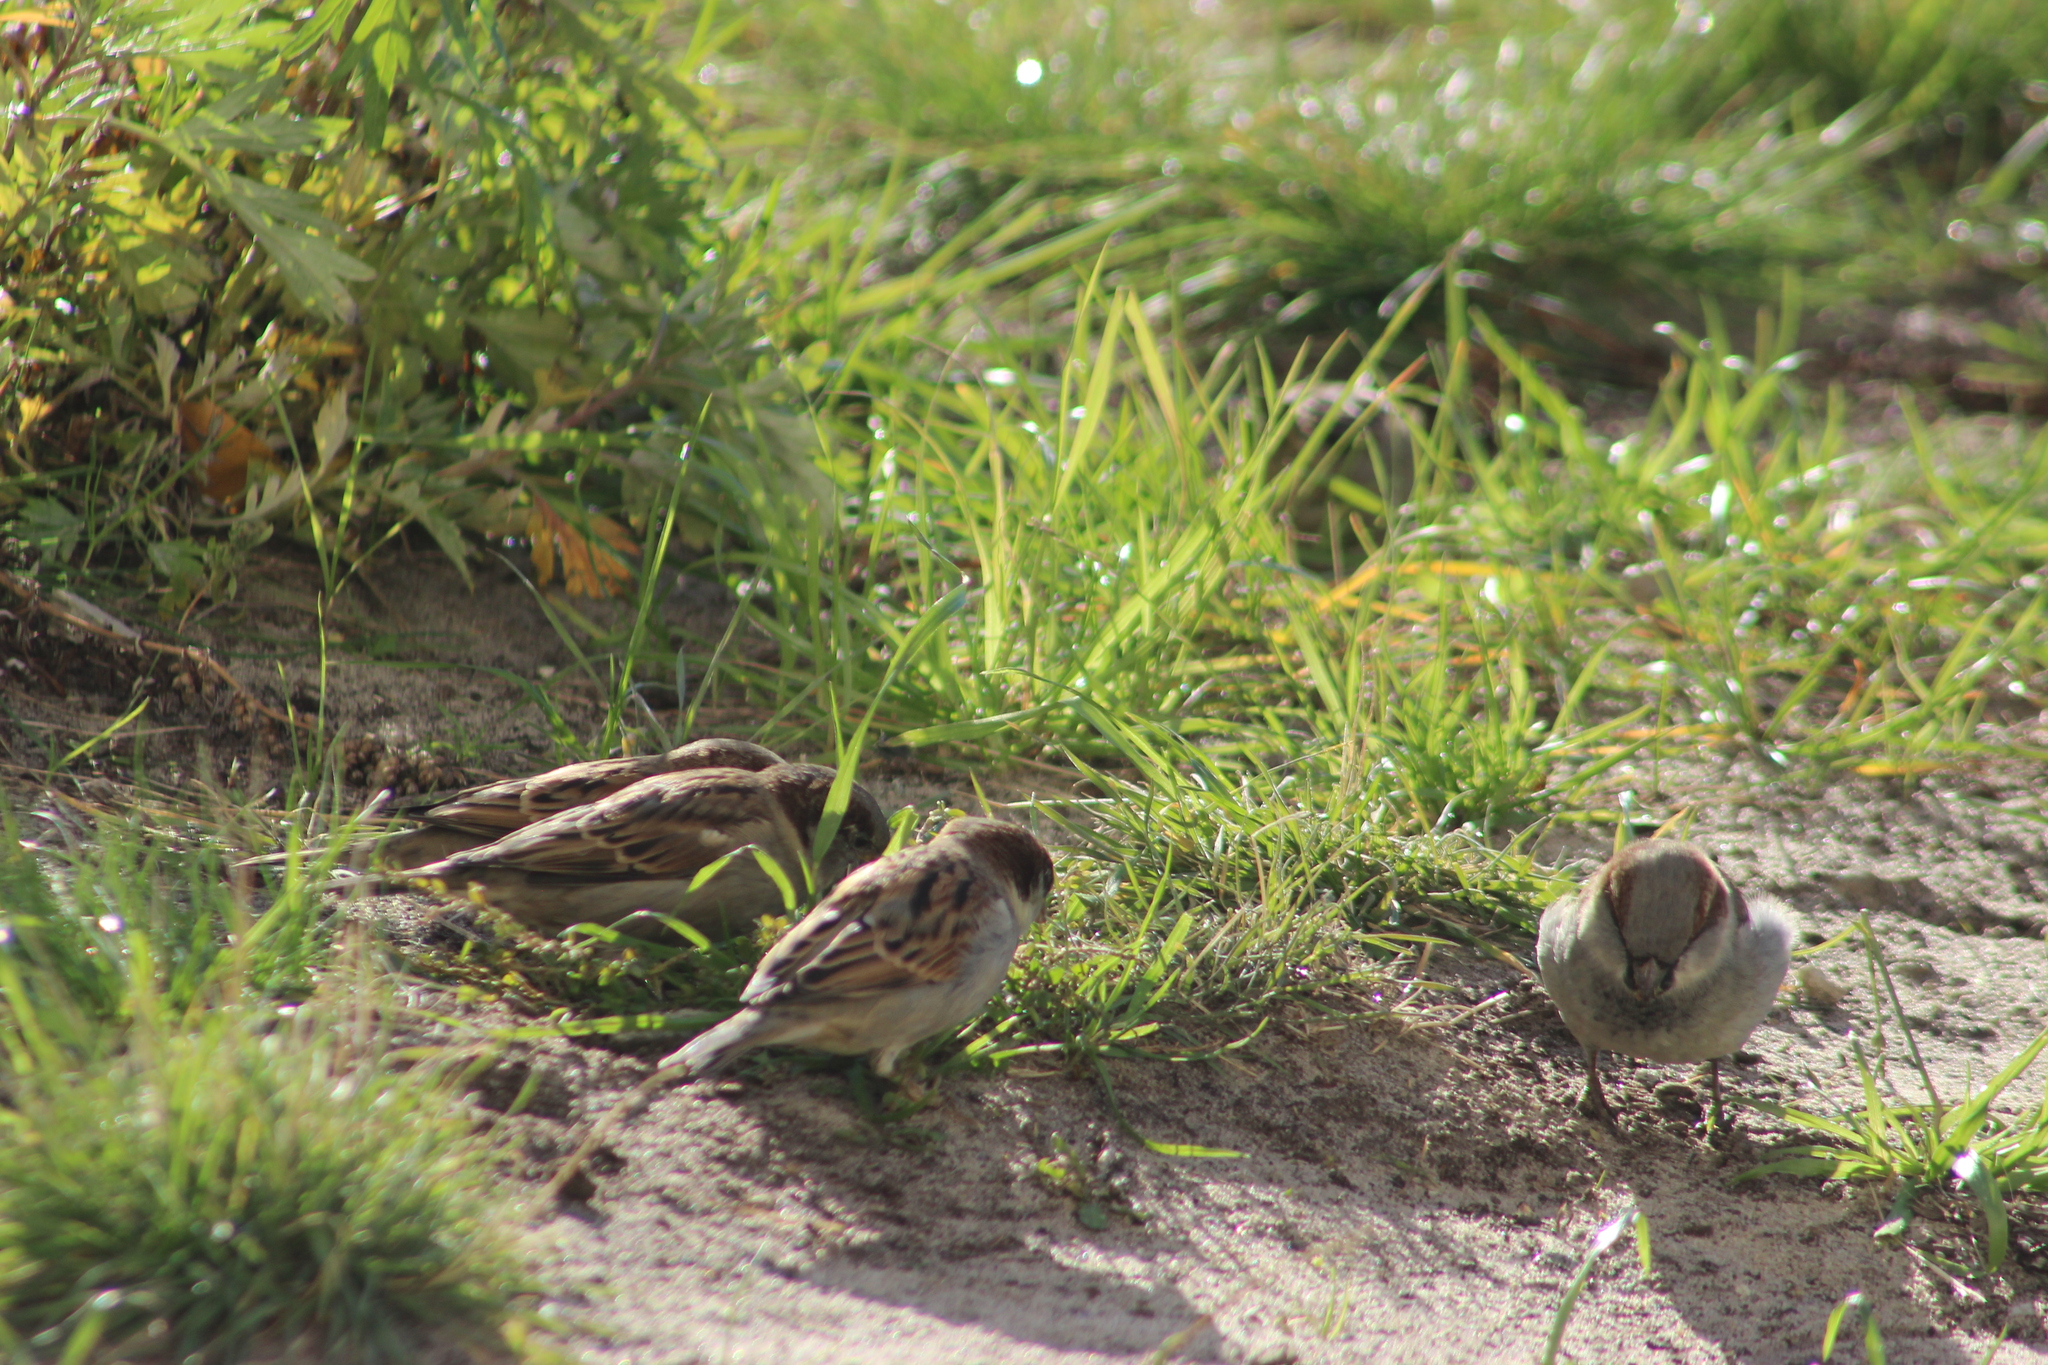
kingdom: Animalia
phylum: Chordata
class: Aves
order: Passeriformes
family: Passeridae
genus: Passer
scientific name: Passer domesticus
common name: House sparrow
